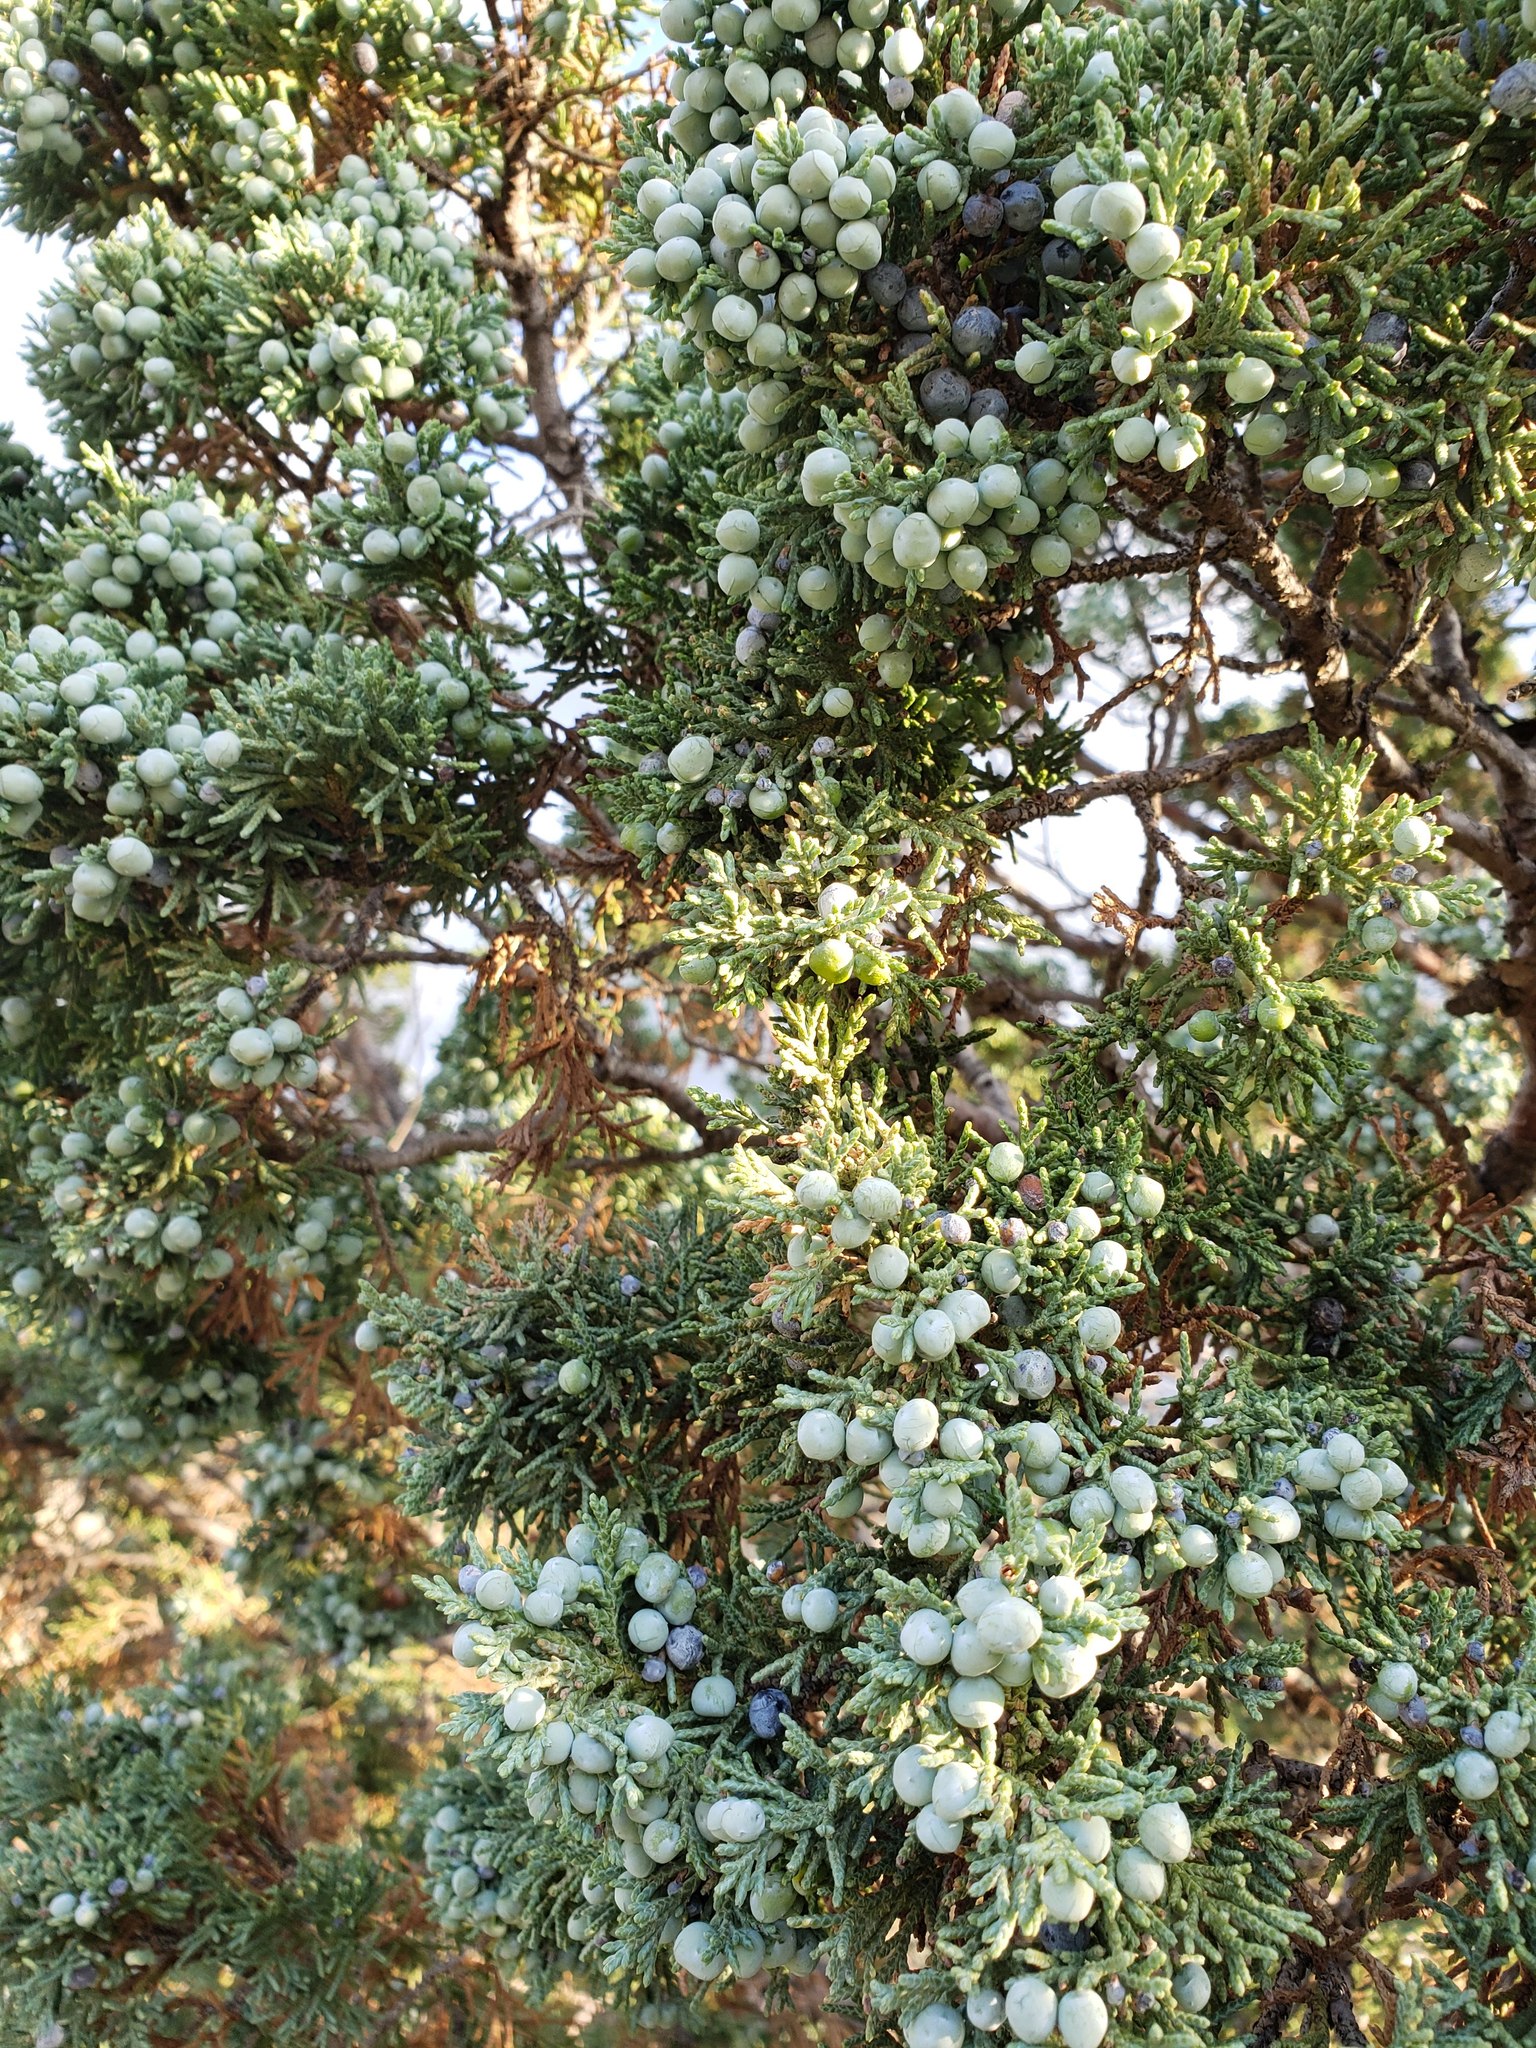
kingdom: Plantae
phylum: Tracheophyta
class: Pinopsida
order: Pinales
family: Cupressaceae
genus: Juniperus
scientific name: Juniperus scopulorum
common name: Rocky mountain juniper
